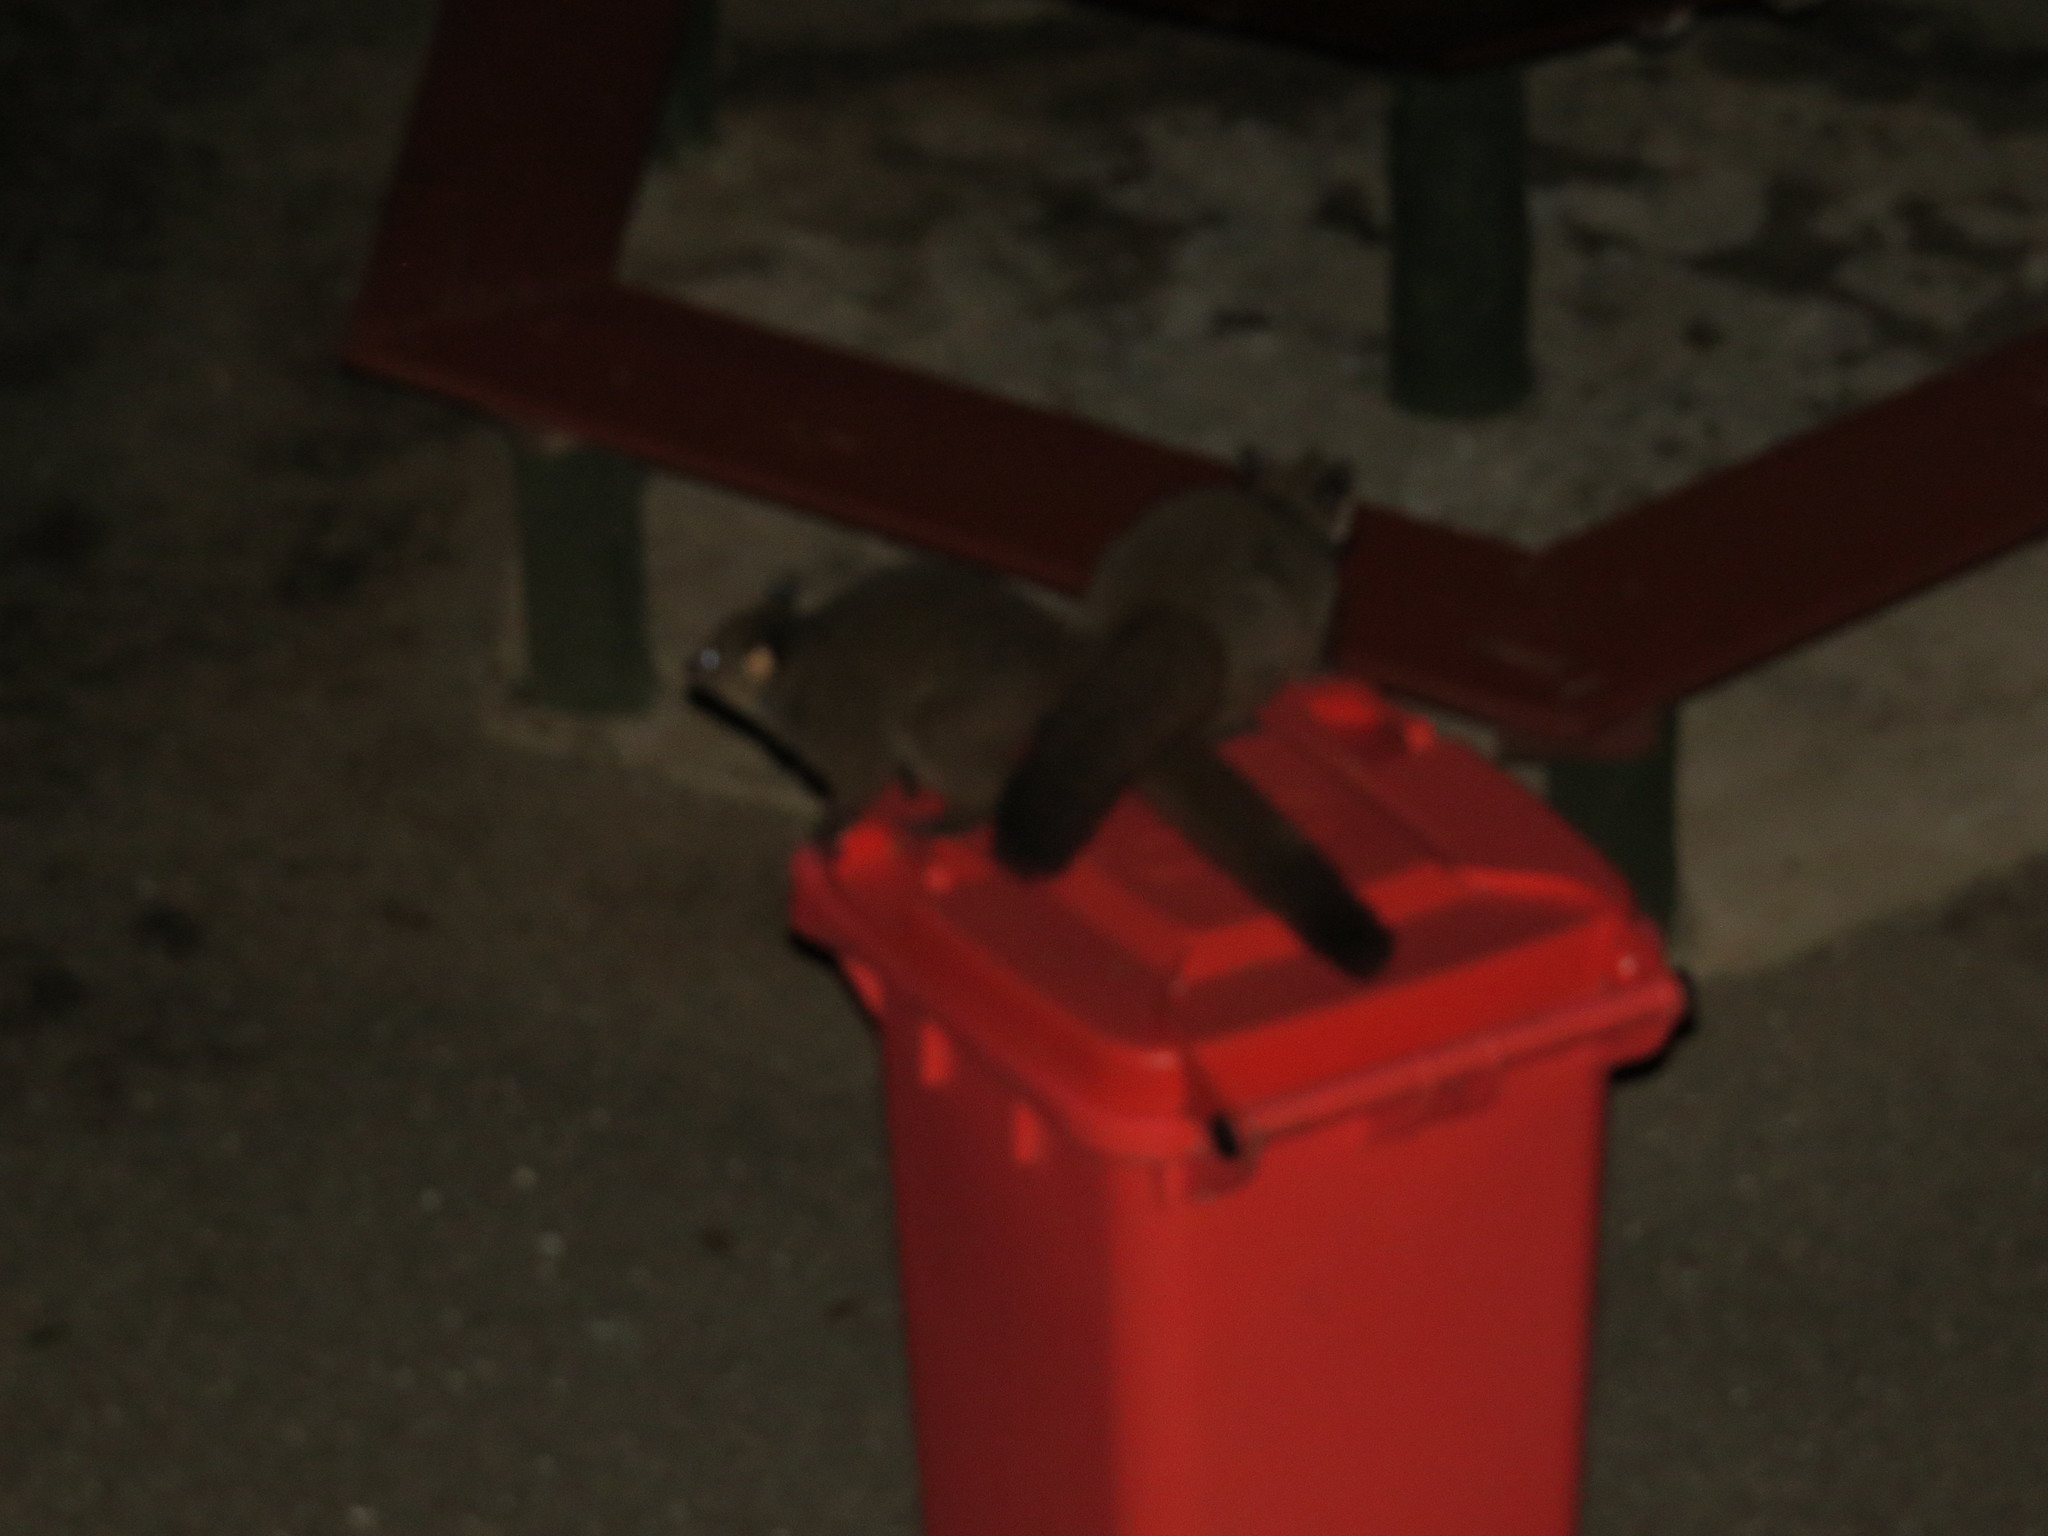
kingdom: Animalia
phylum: Chordata
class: Mammalia
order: Primates
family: Galagidae
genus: Otolemur
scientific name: Otolemur garnettii
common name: Northern greater galago
